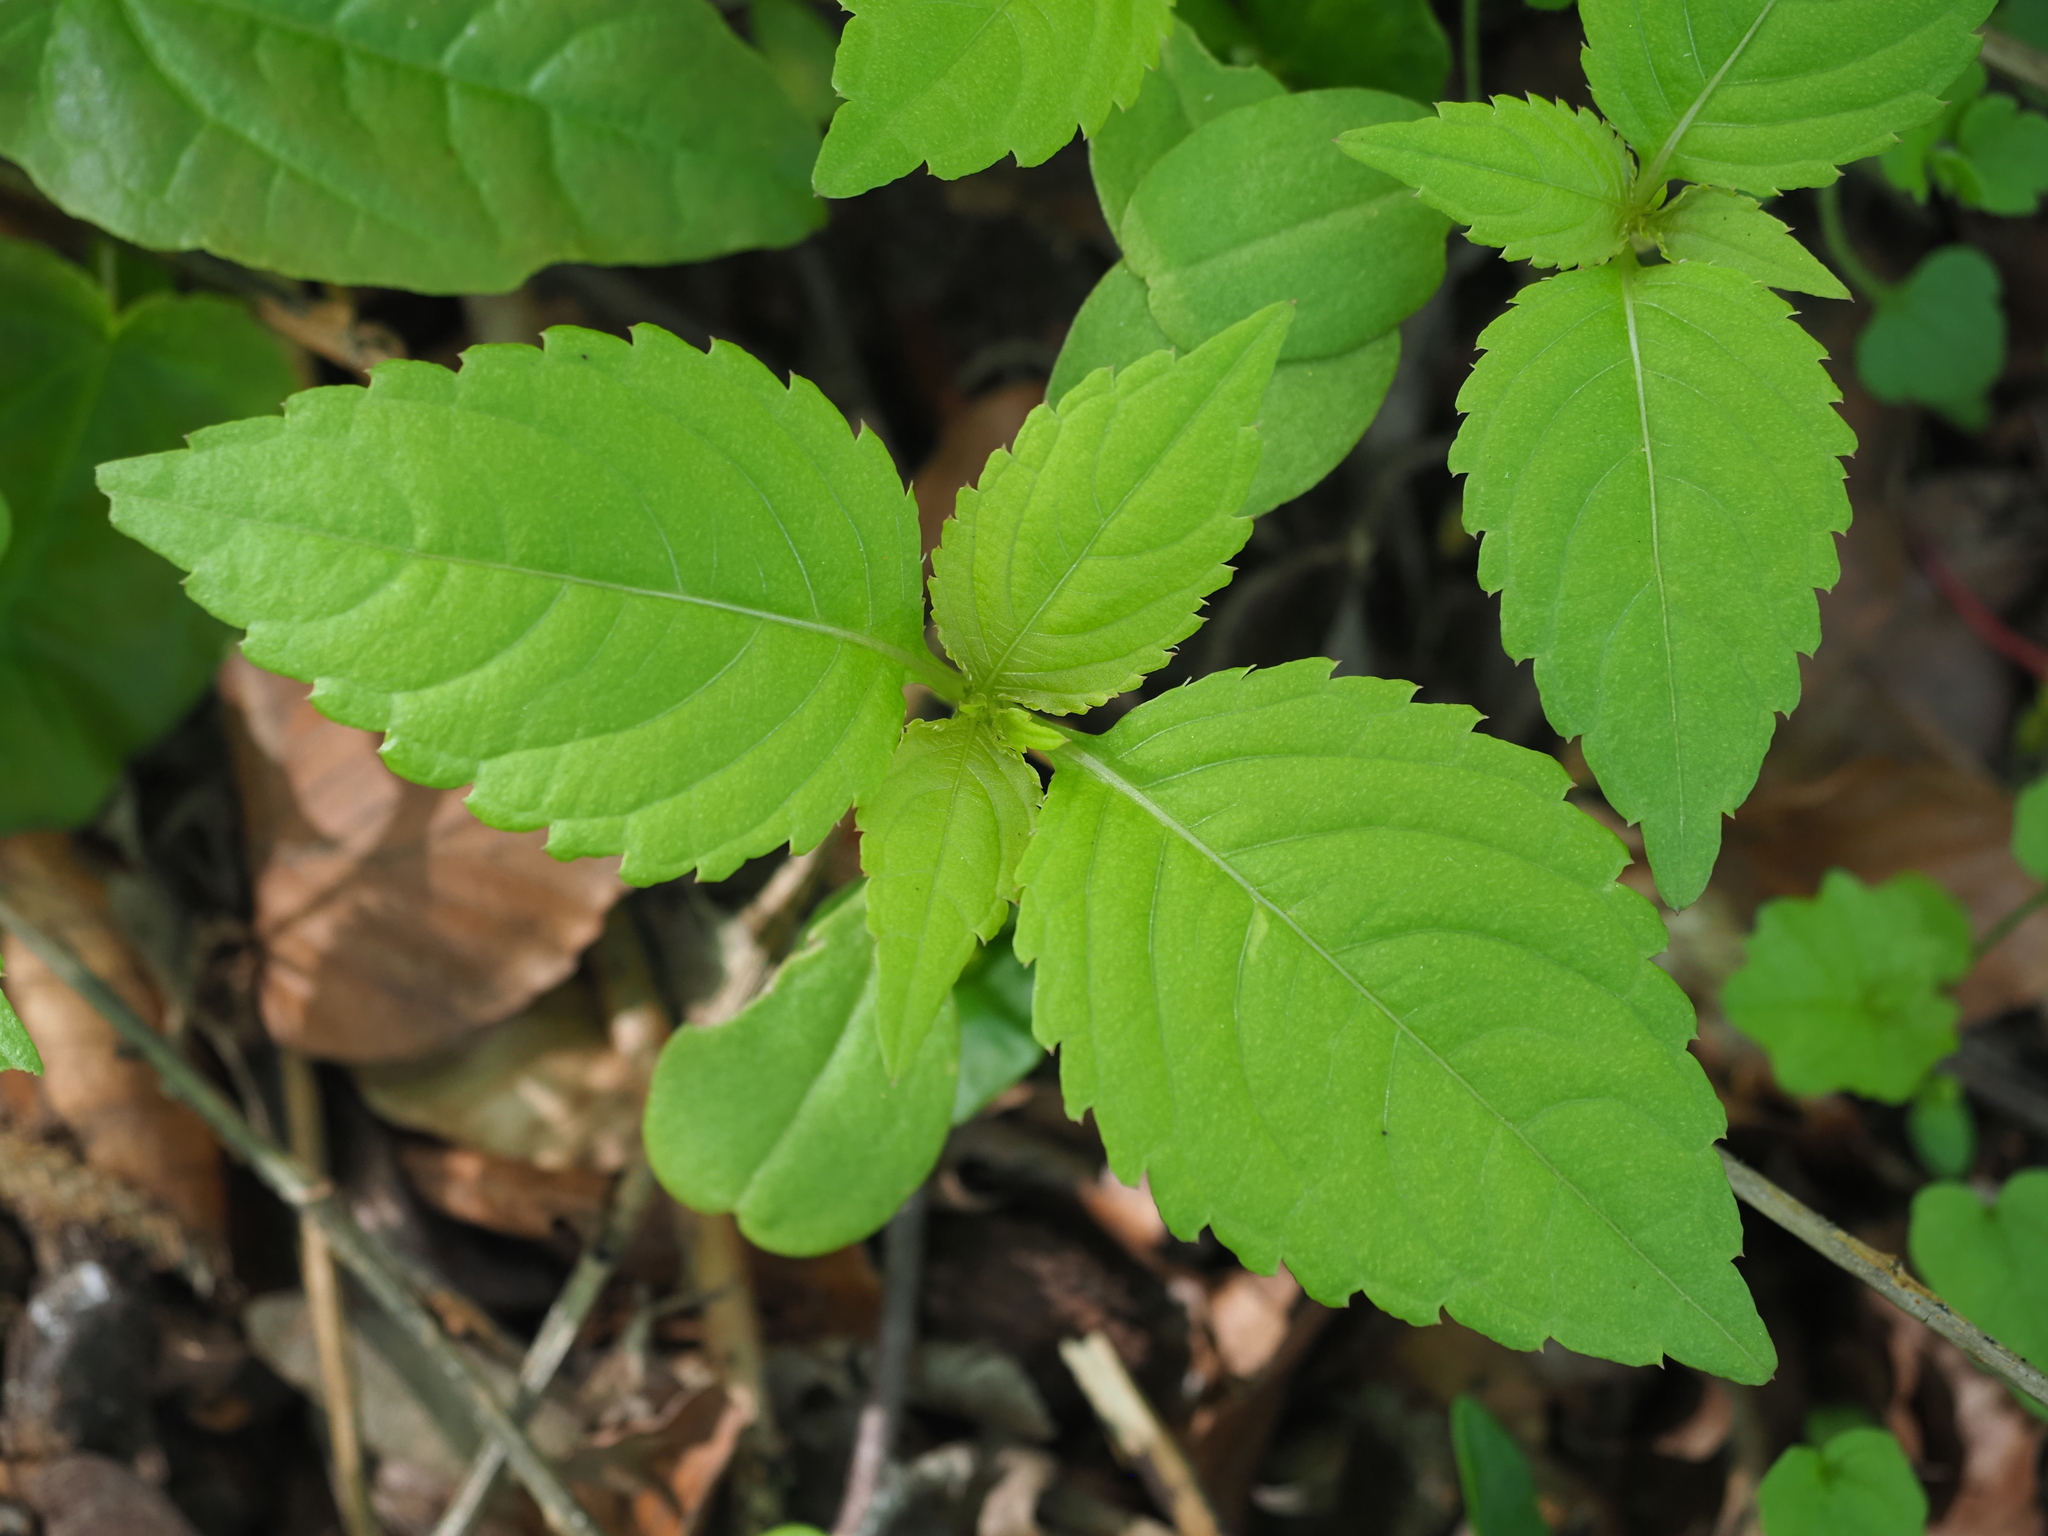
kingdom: Plantae
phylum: Tracheophyta
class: Magnoliopsida
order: Ericales
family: Balsaminaceae
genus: Impatiens
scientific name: Impatiens parviflora
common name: Small balsam
